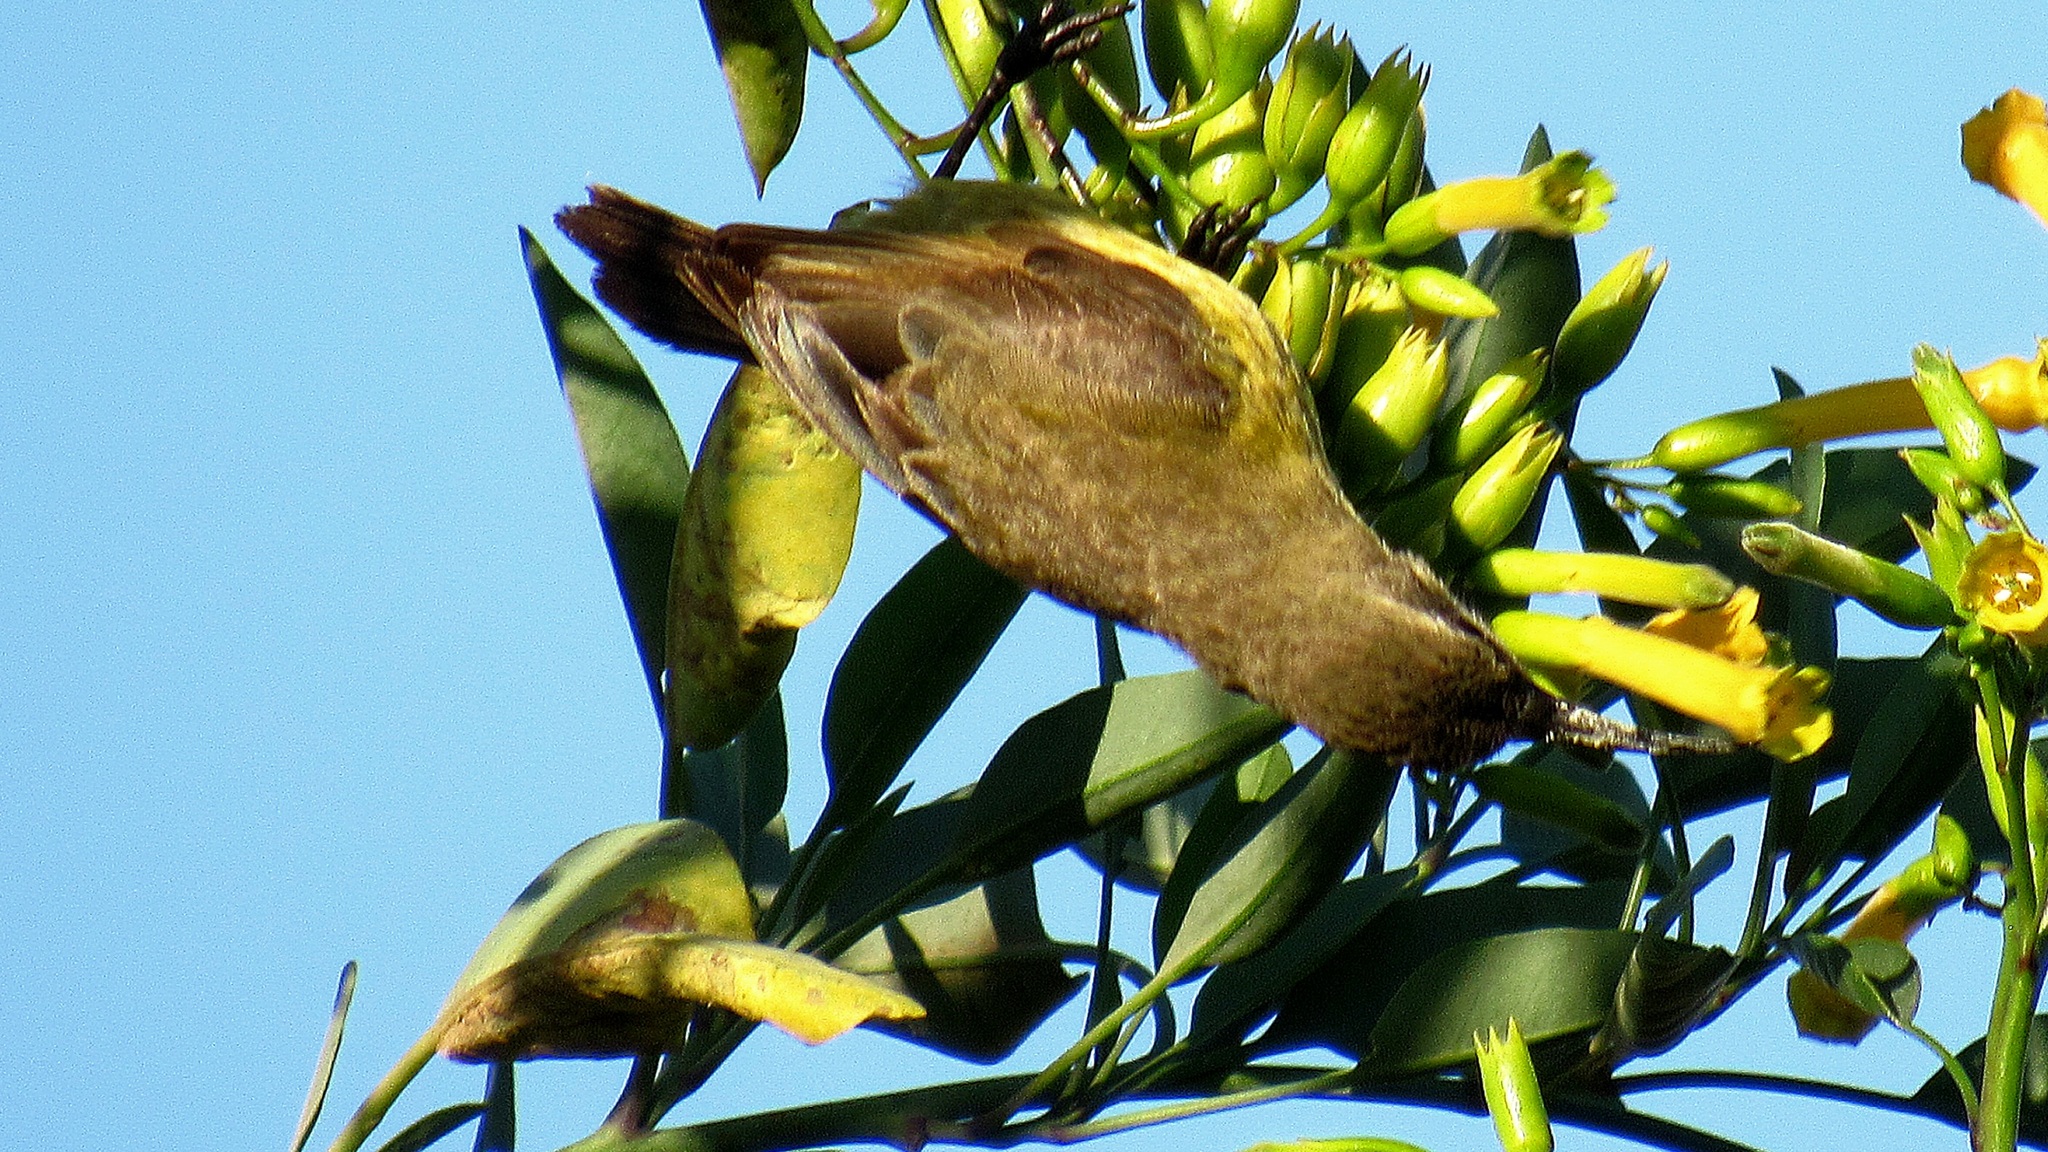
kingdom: Animalia
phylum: Chordata
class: Aves
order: Passeriformes
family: Nectariniidae
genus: Nectarinia
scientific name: Nectarinia kilimensis
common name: Bronzy sunbird
